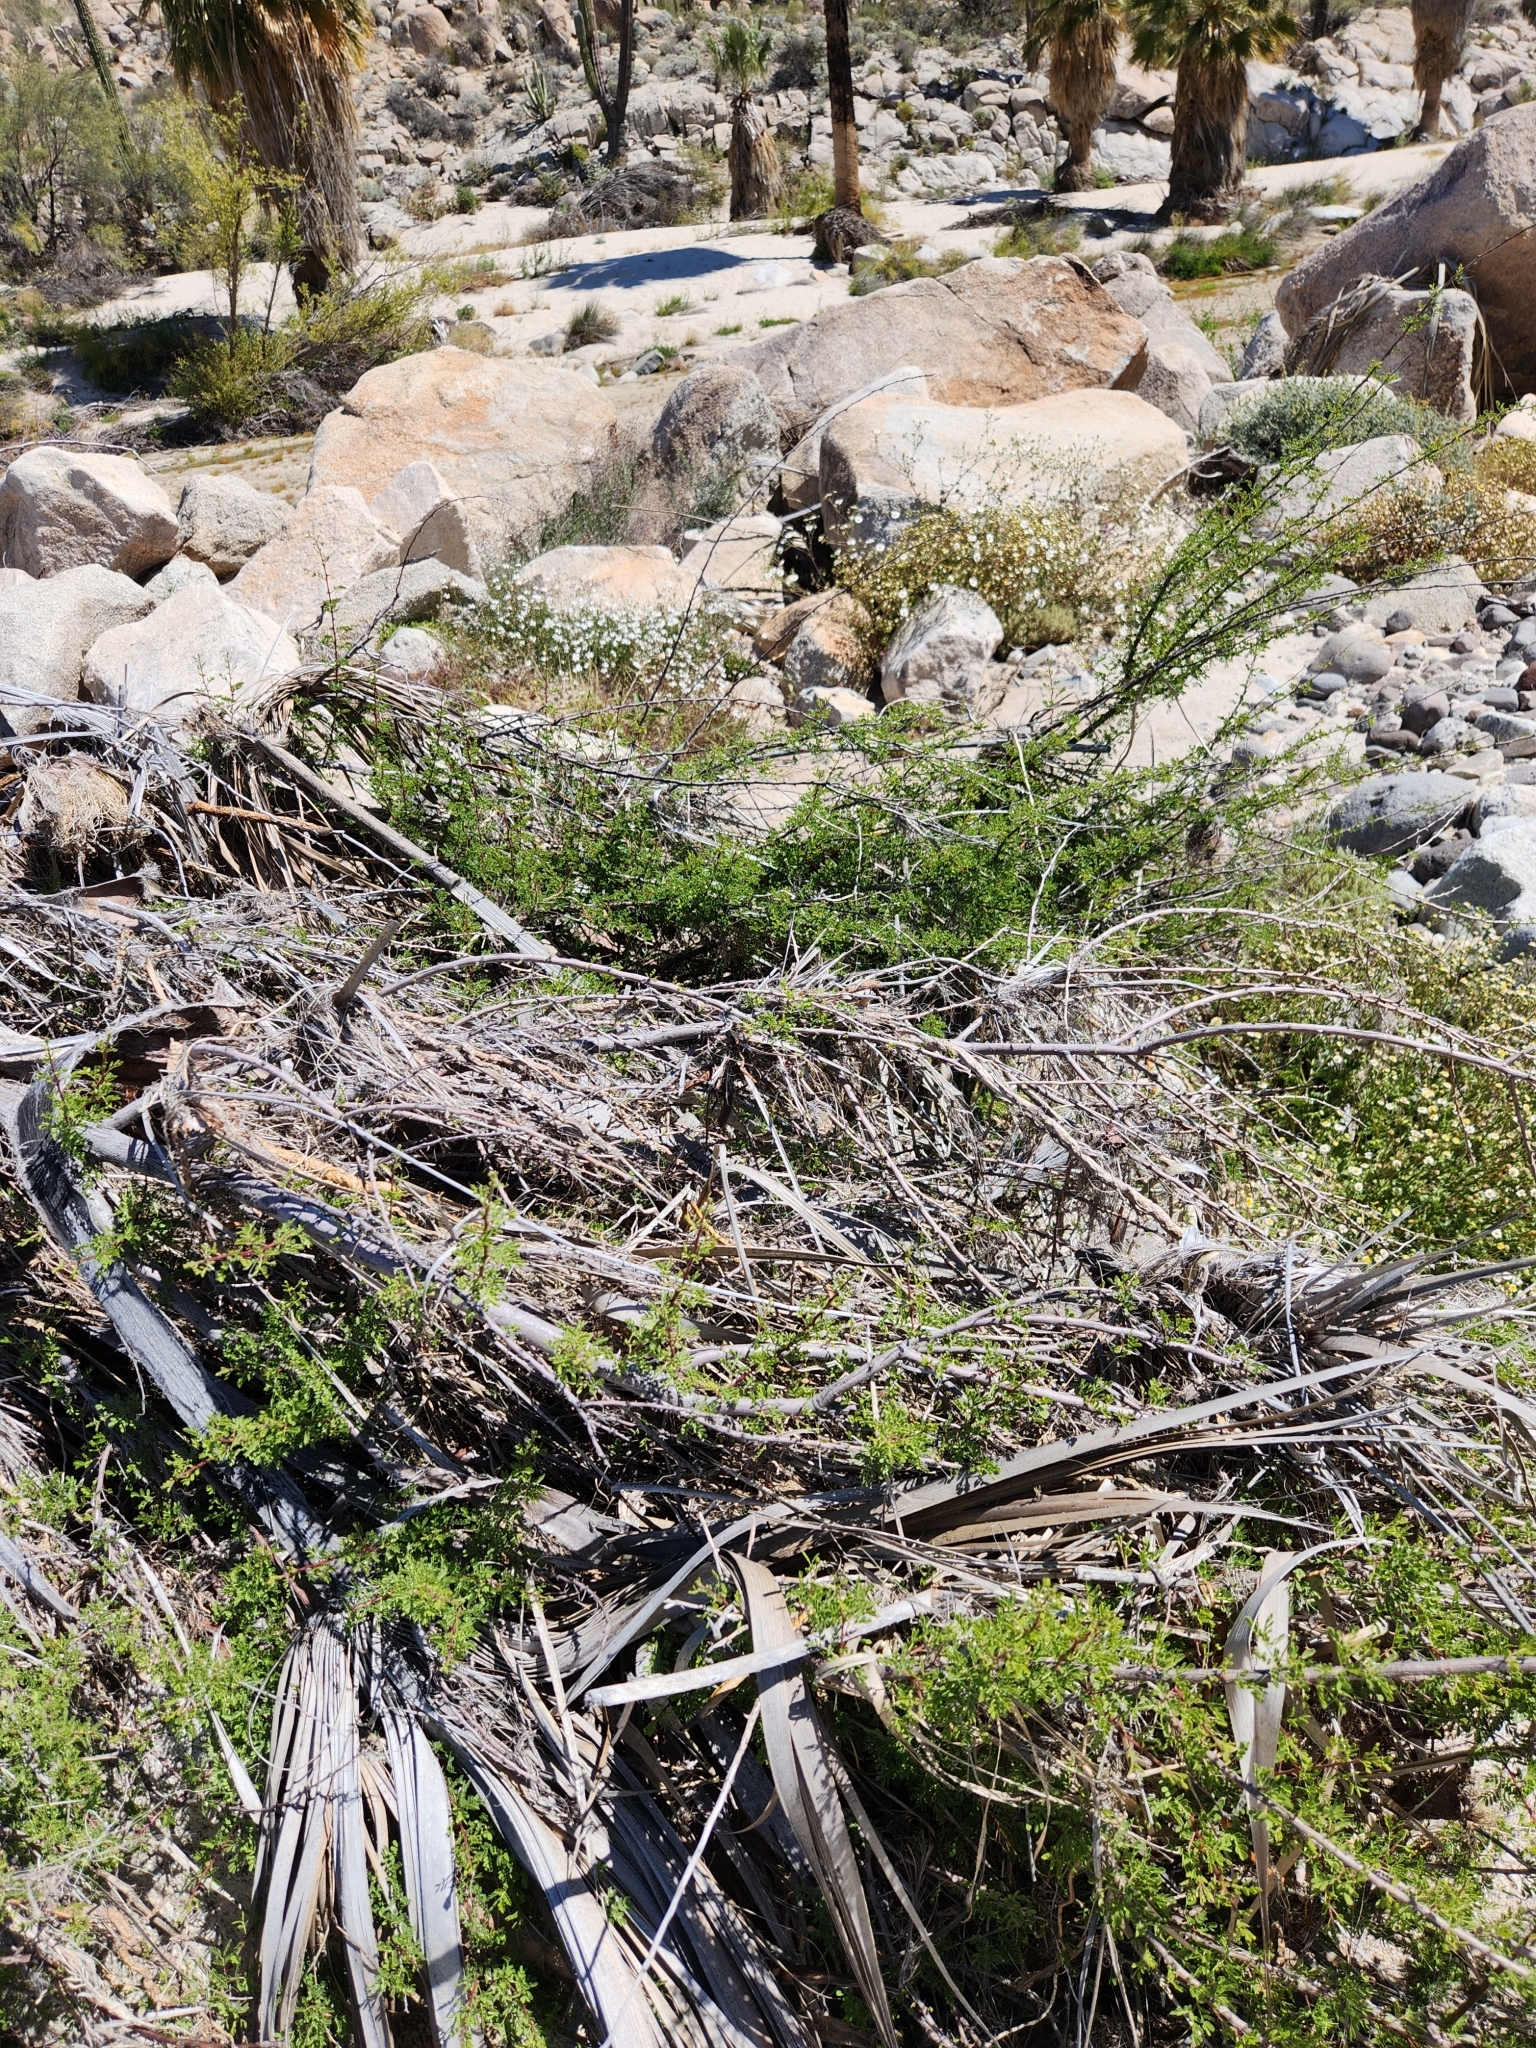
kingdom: Plantae
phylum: Tracheophyta
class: Magnoliopsida
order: Sapindales
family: Burseraceae
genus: Bursera
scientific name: Bursera microphylla
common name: Elephant tree
